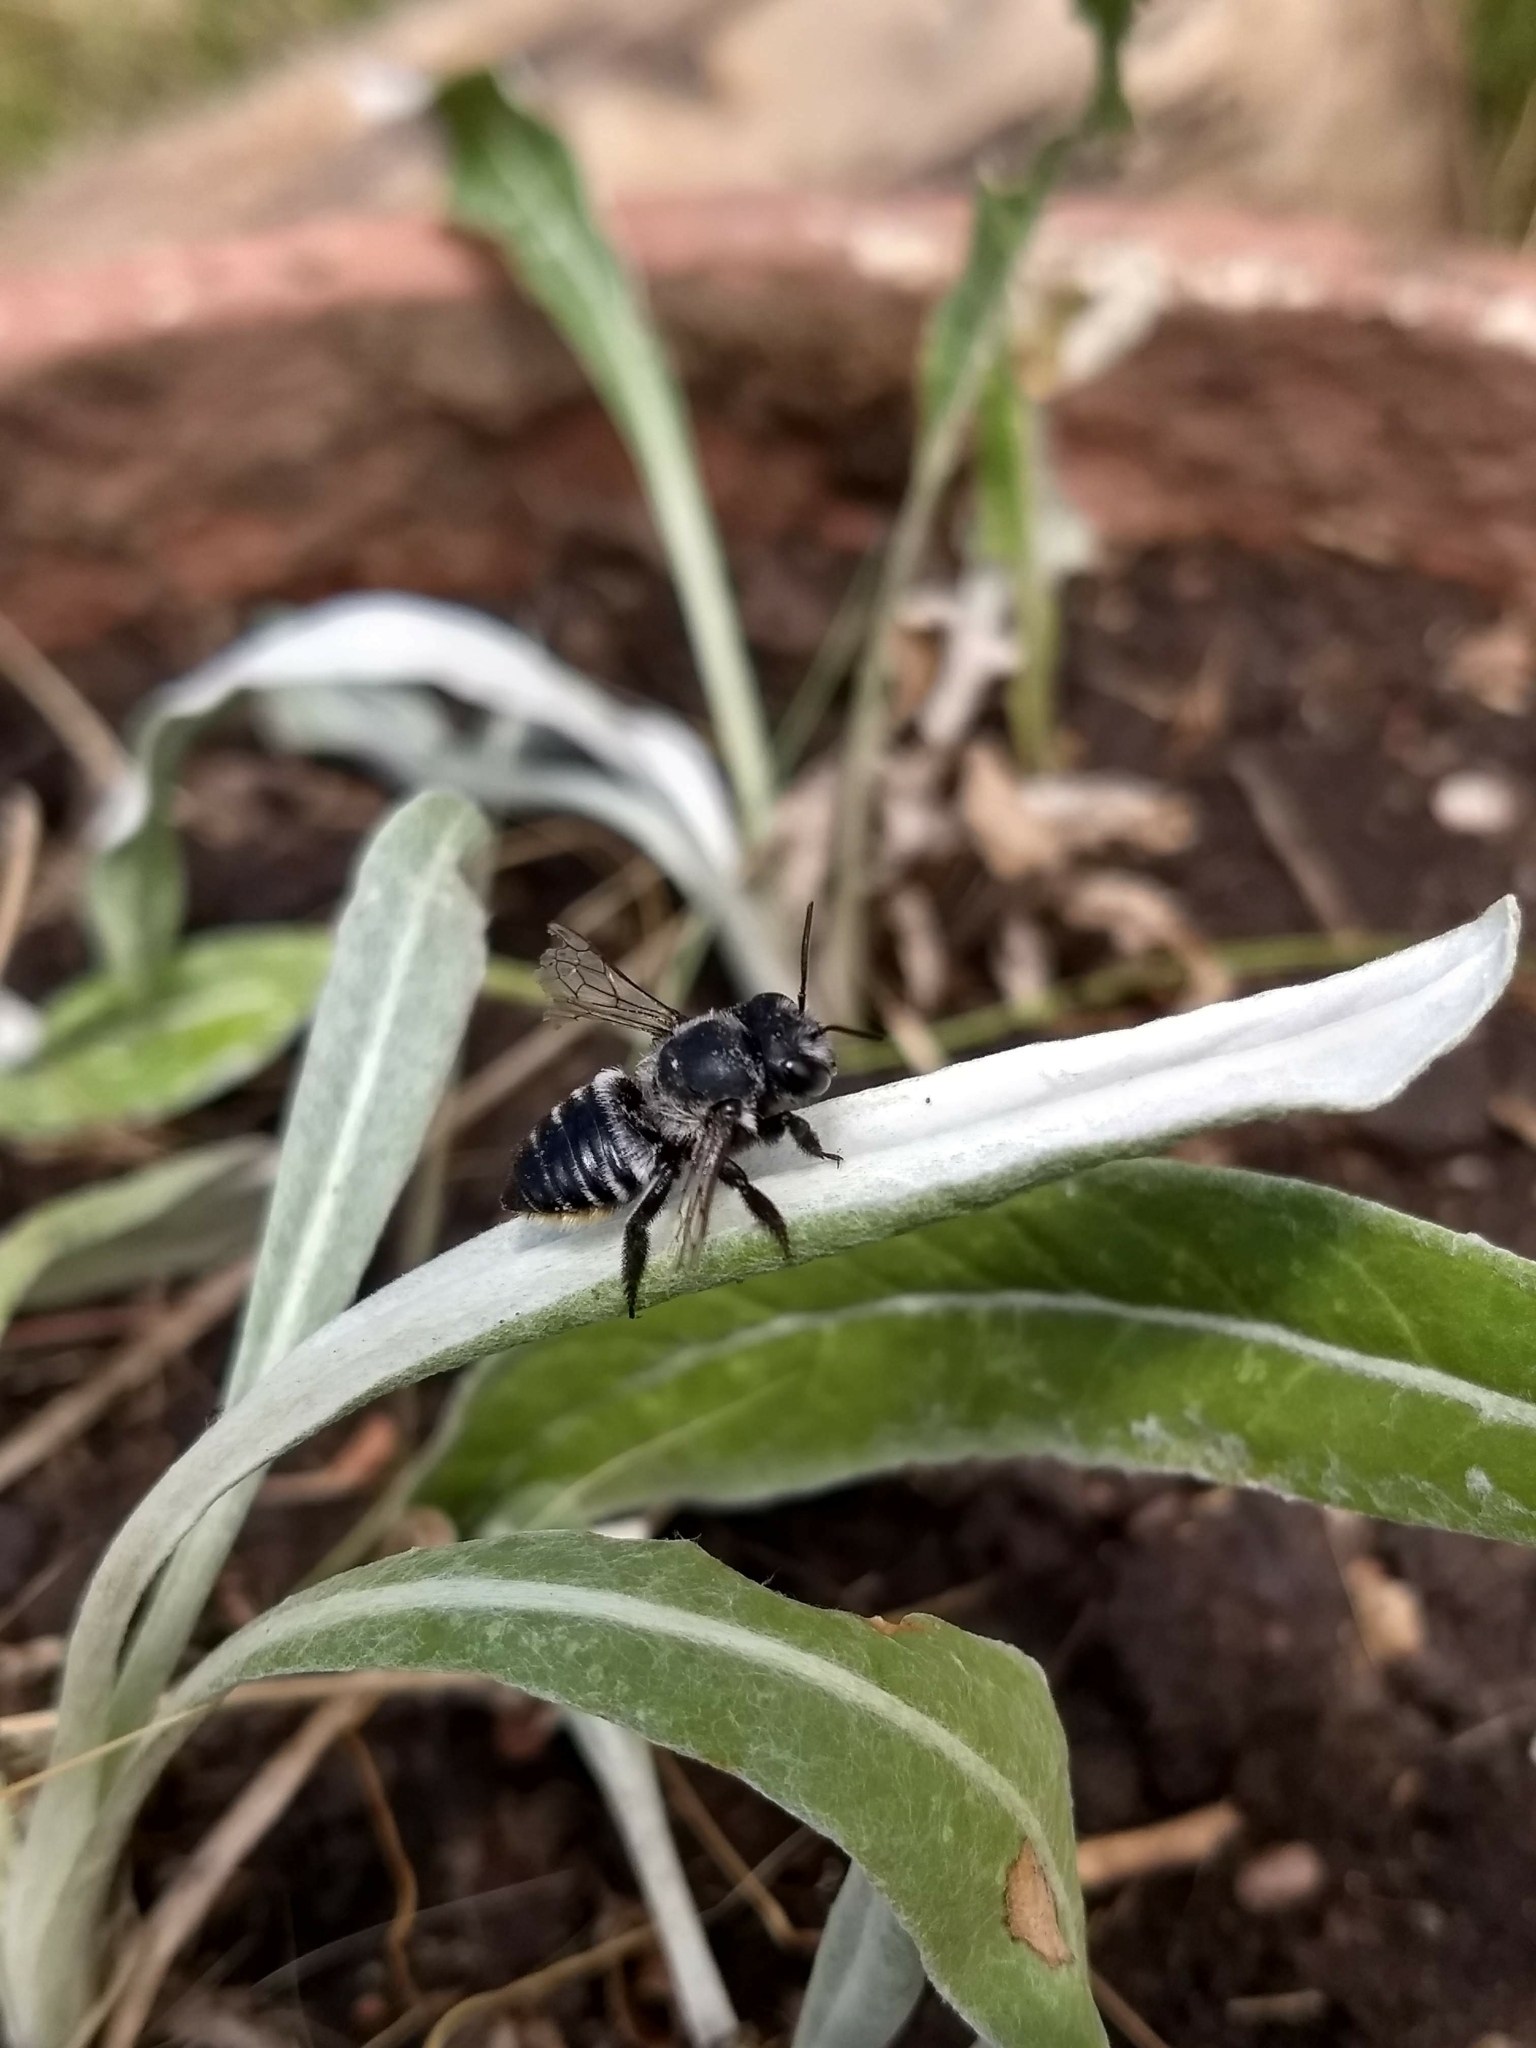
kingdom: Animalia
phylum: Arthropoda
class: Insecta
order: Hymenoptera
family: Megachilidae
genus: Megachile
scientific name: Megachile
